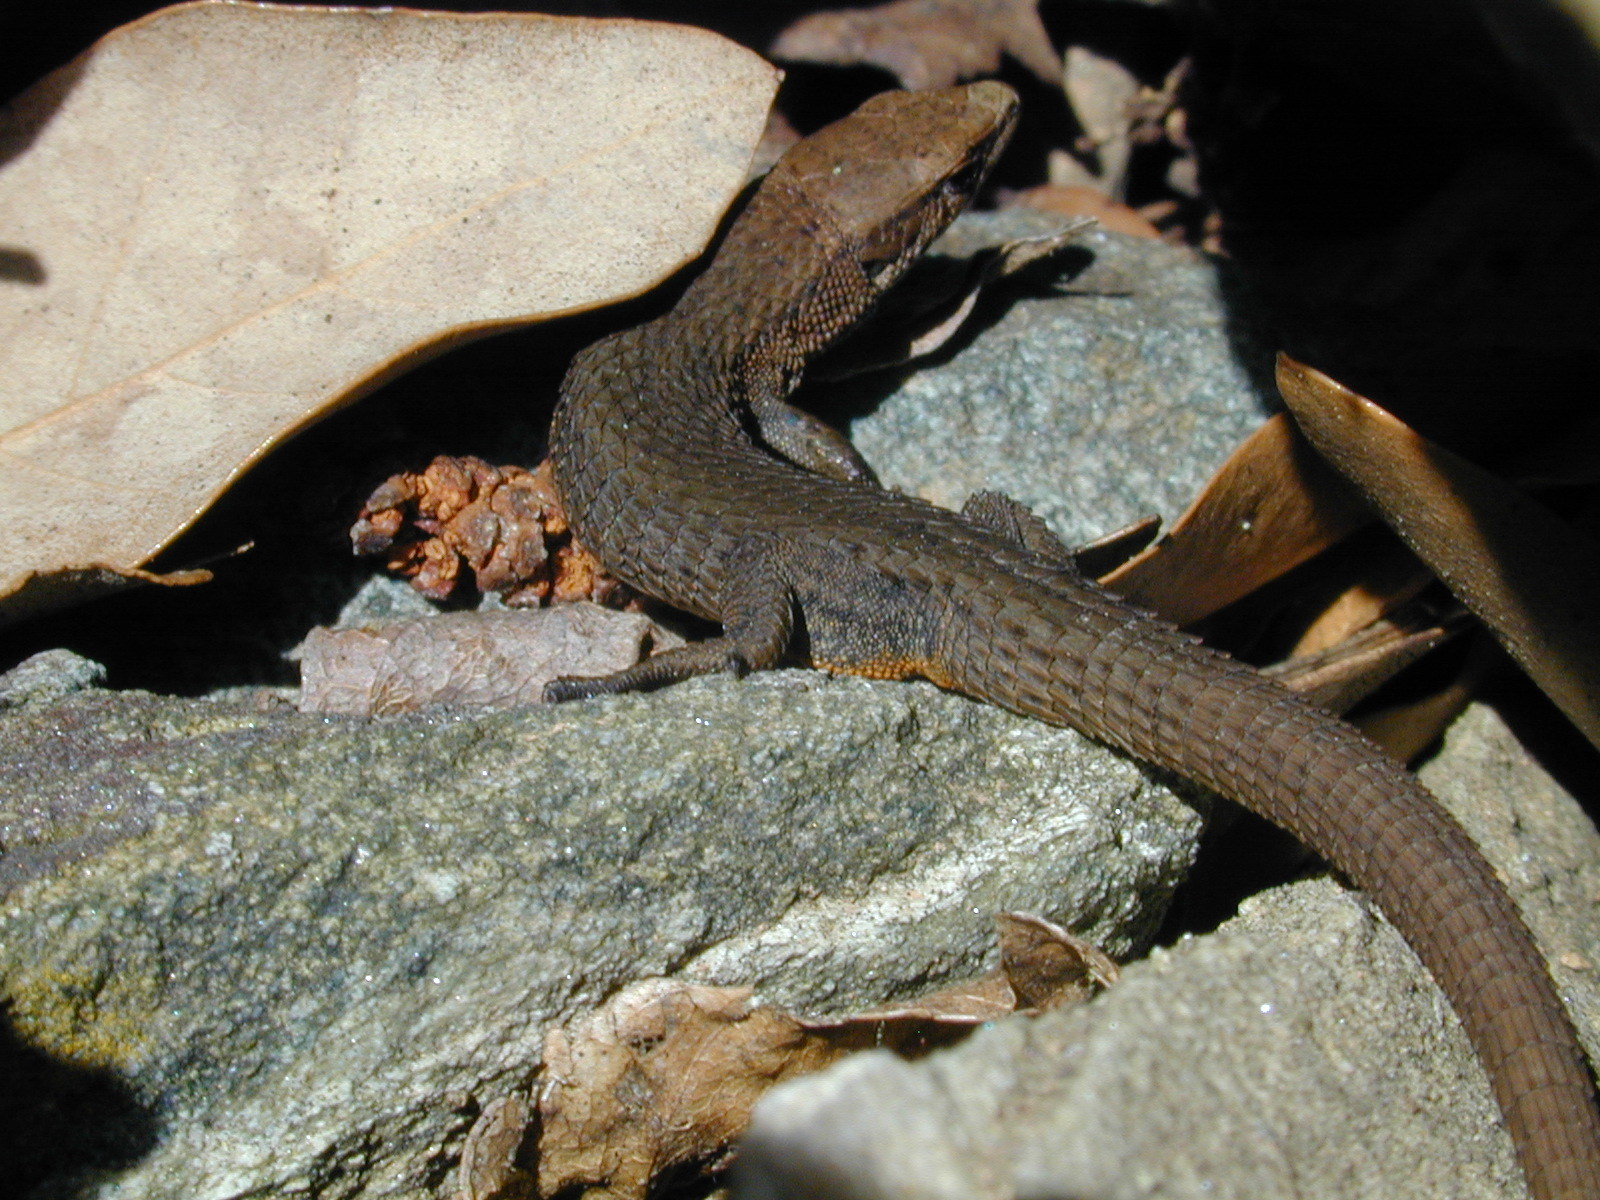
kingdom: Animalia
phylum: Chordata
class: Squamata
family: Lacertidae
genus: Algyroides
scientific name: Algyroides fitzingeri
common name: Fitzinger's algyroides
